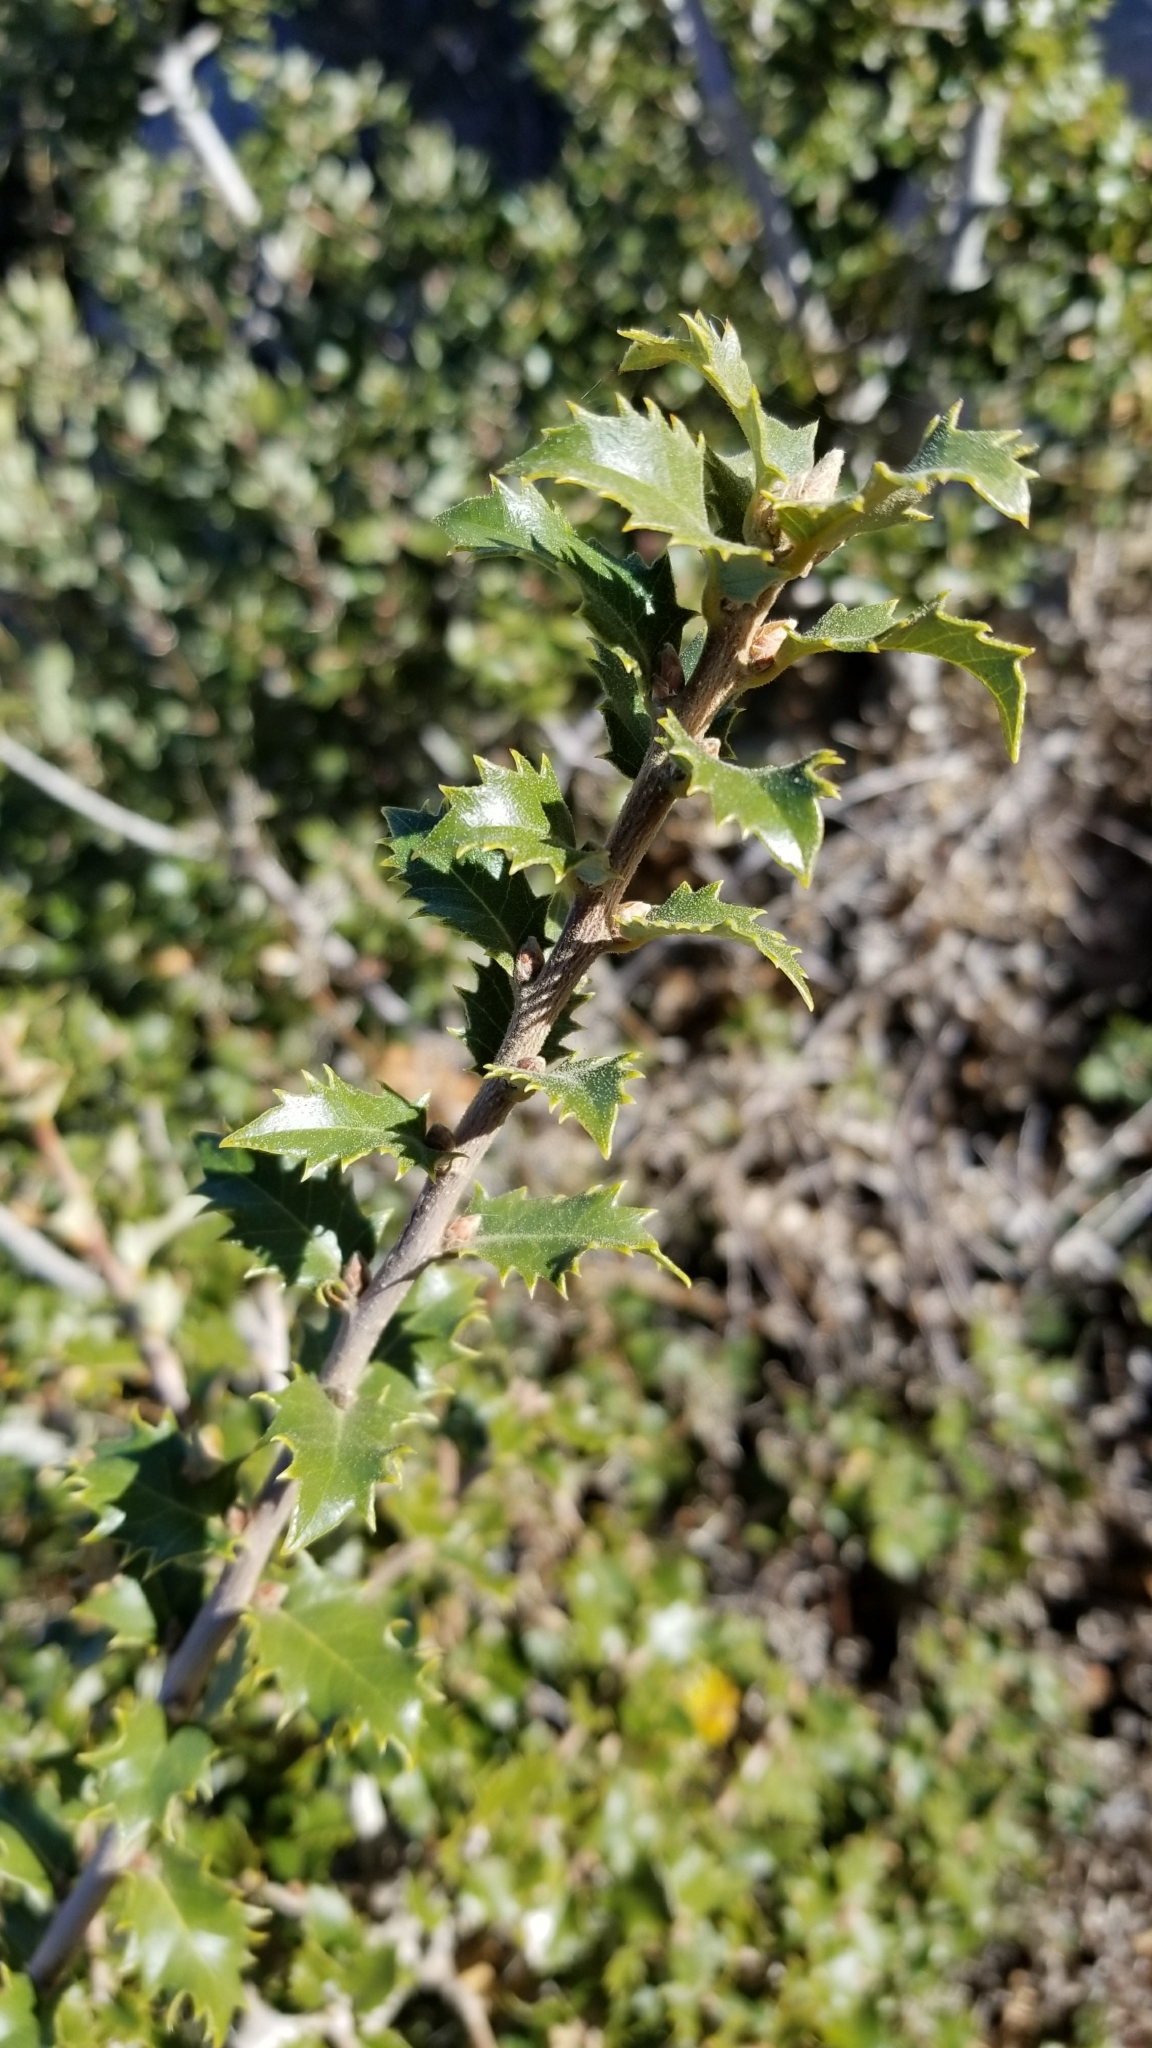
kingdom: Plantae
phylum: Tracheophyta
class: Magnoliopsida
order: Fagales
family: Fagaceae
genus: Quercus
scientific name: Quercus berberidifolia
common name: California scrub oak
